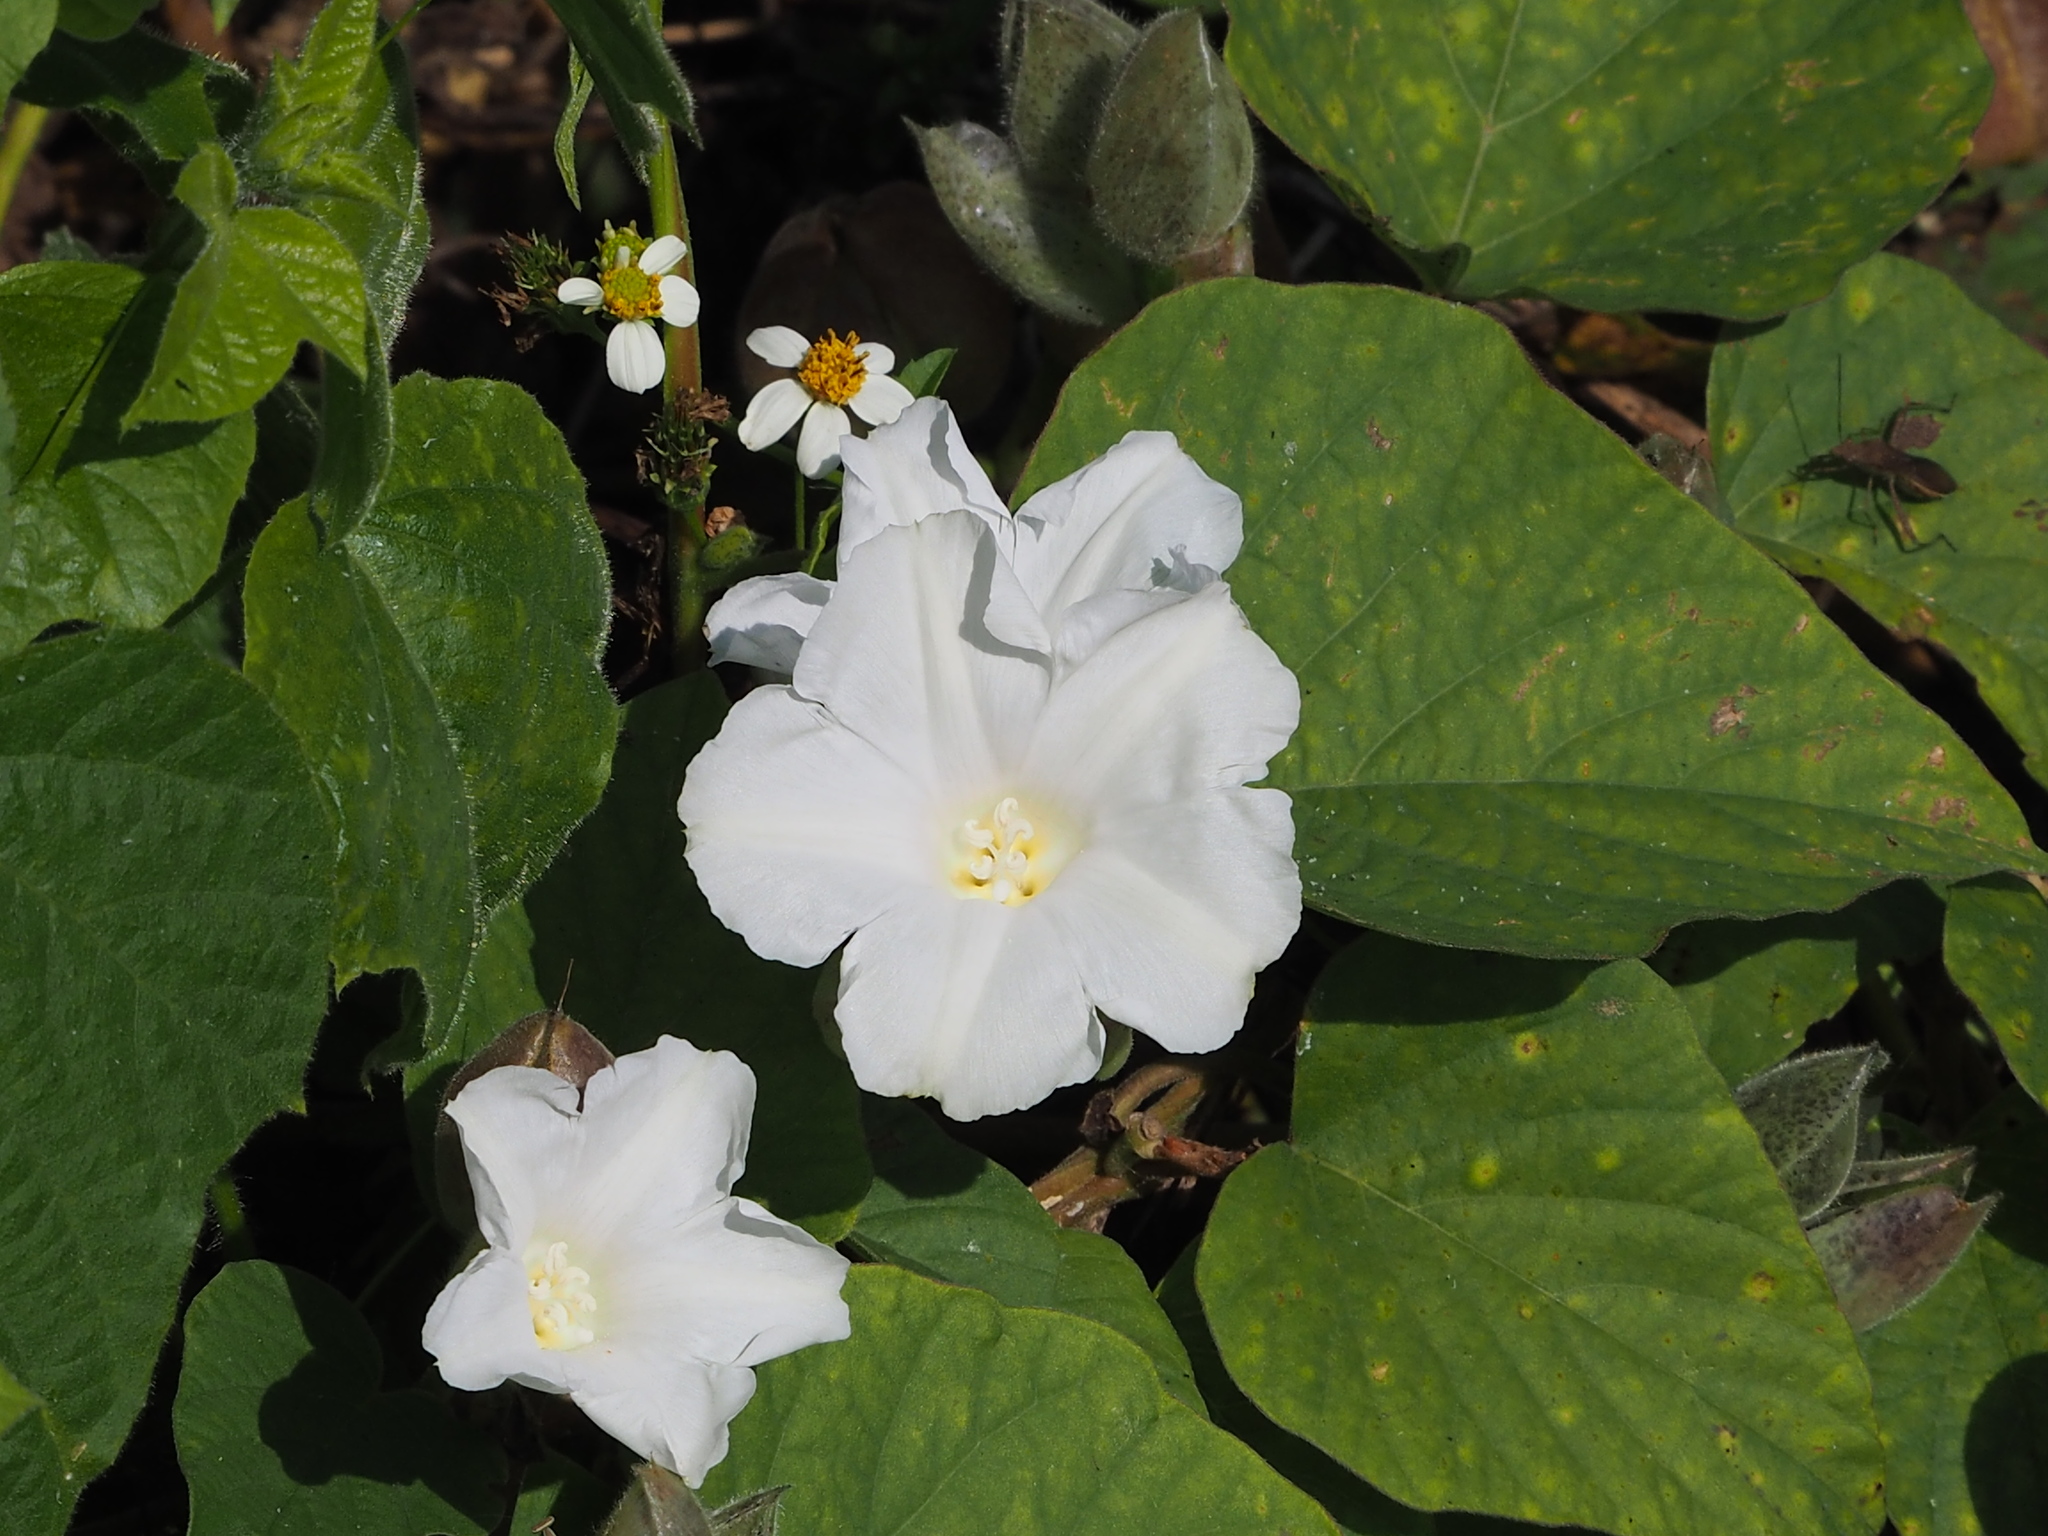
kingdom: Plantae
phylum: Tracheophyta
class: Magnoliopsida
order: Solanales
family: Convolvulaceae
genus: Operculina
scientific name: Operculina turpethum
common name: Transparent wood-rose
